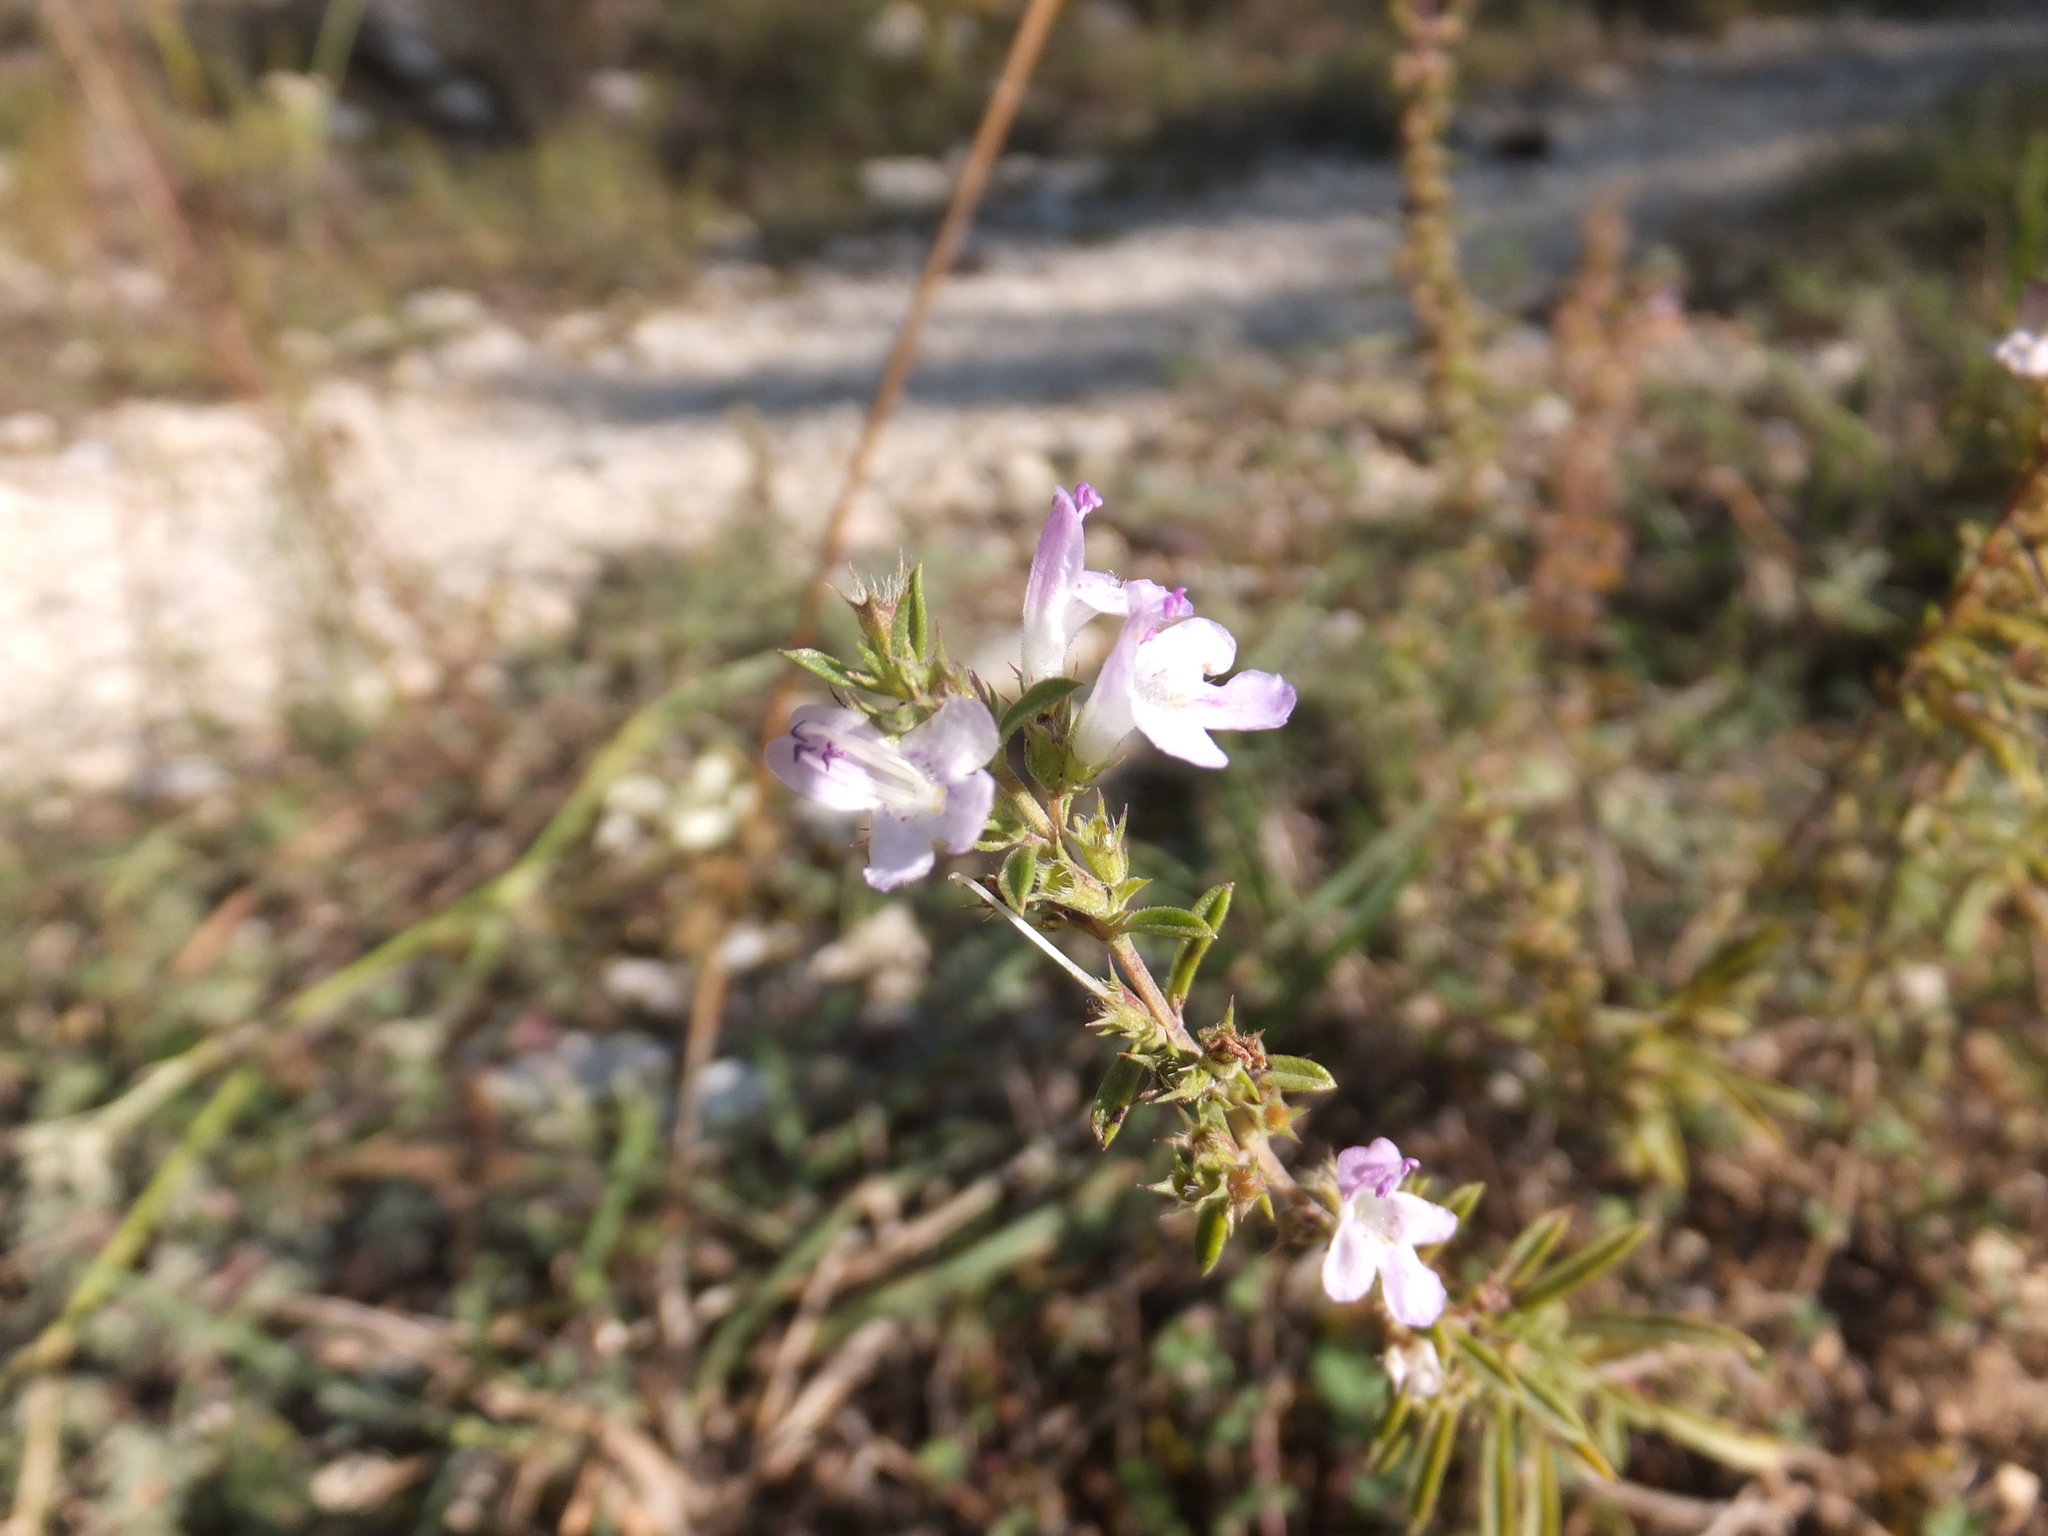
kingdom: Plantae
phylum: Tracheophyta
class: Magnoliopsida
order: Lamiales
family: Lamiaceae
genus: Satureja
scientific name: Satureja hortensis
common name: Summer savory
